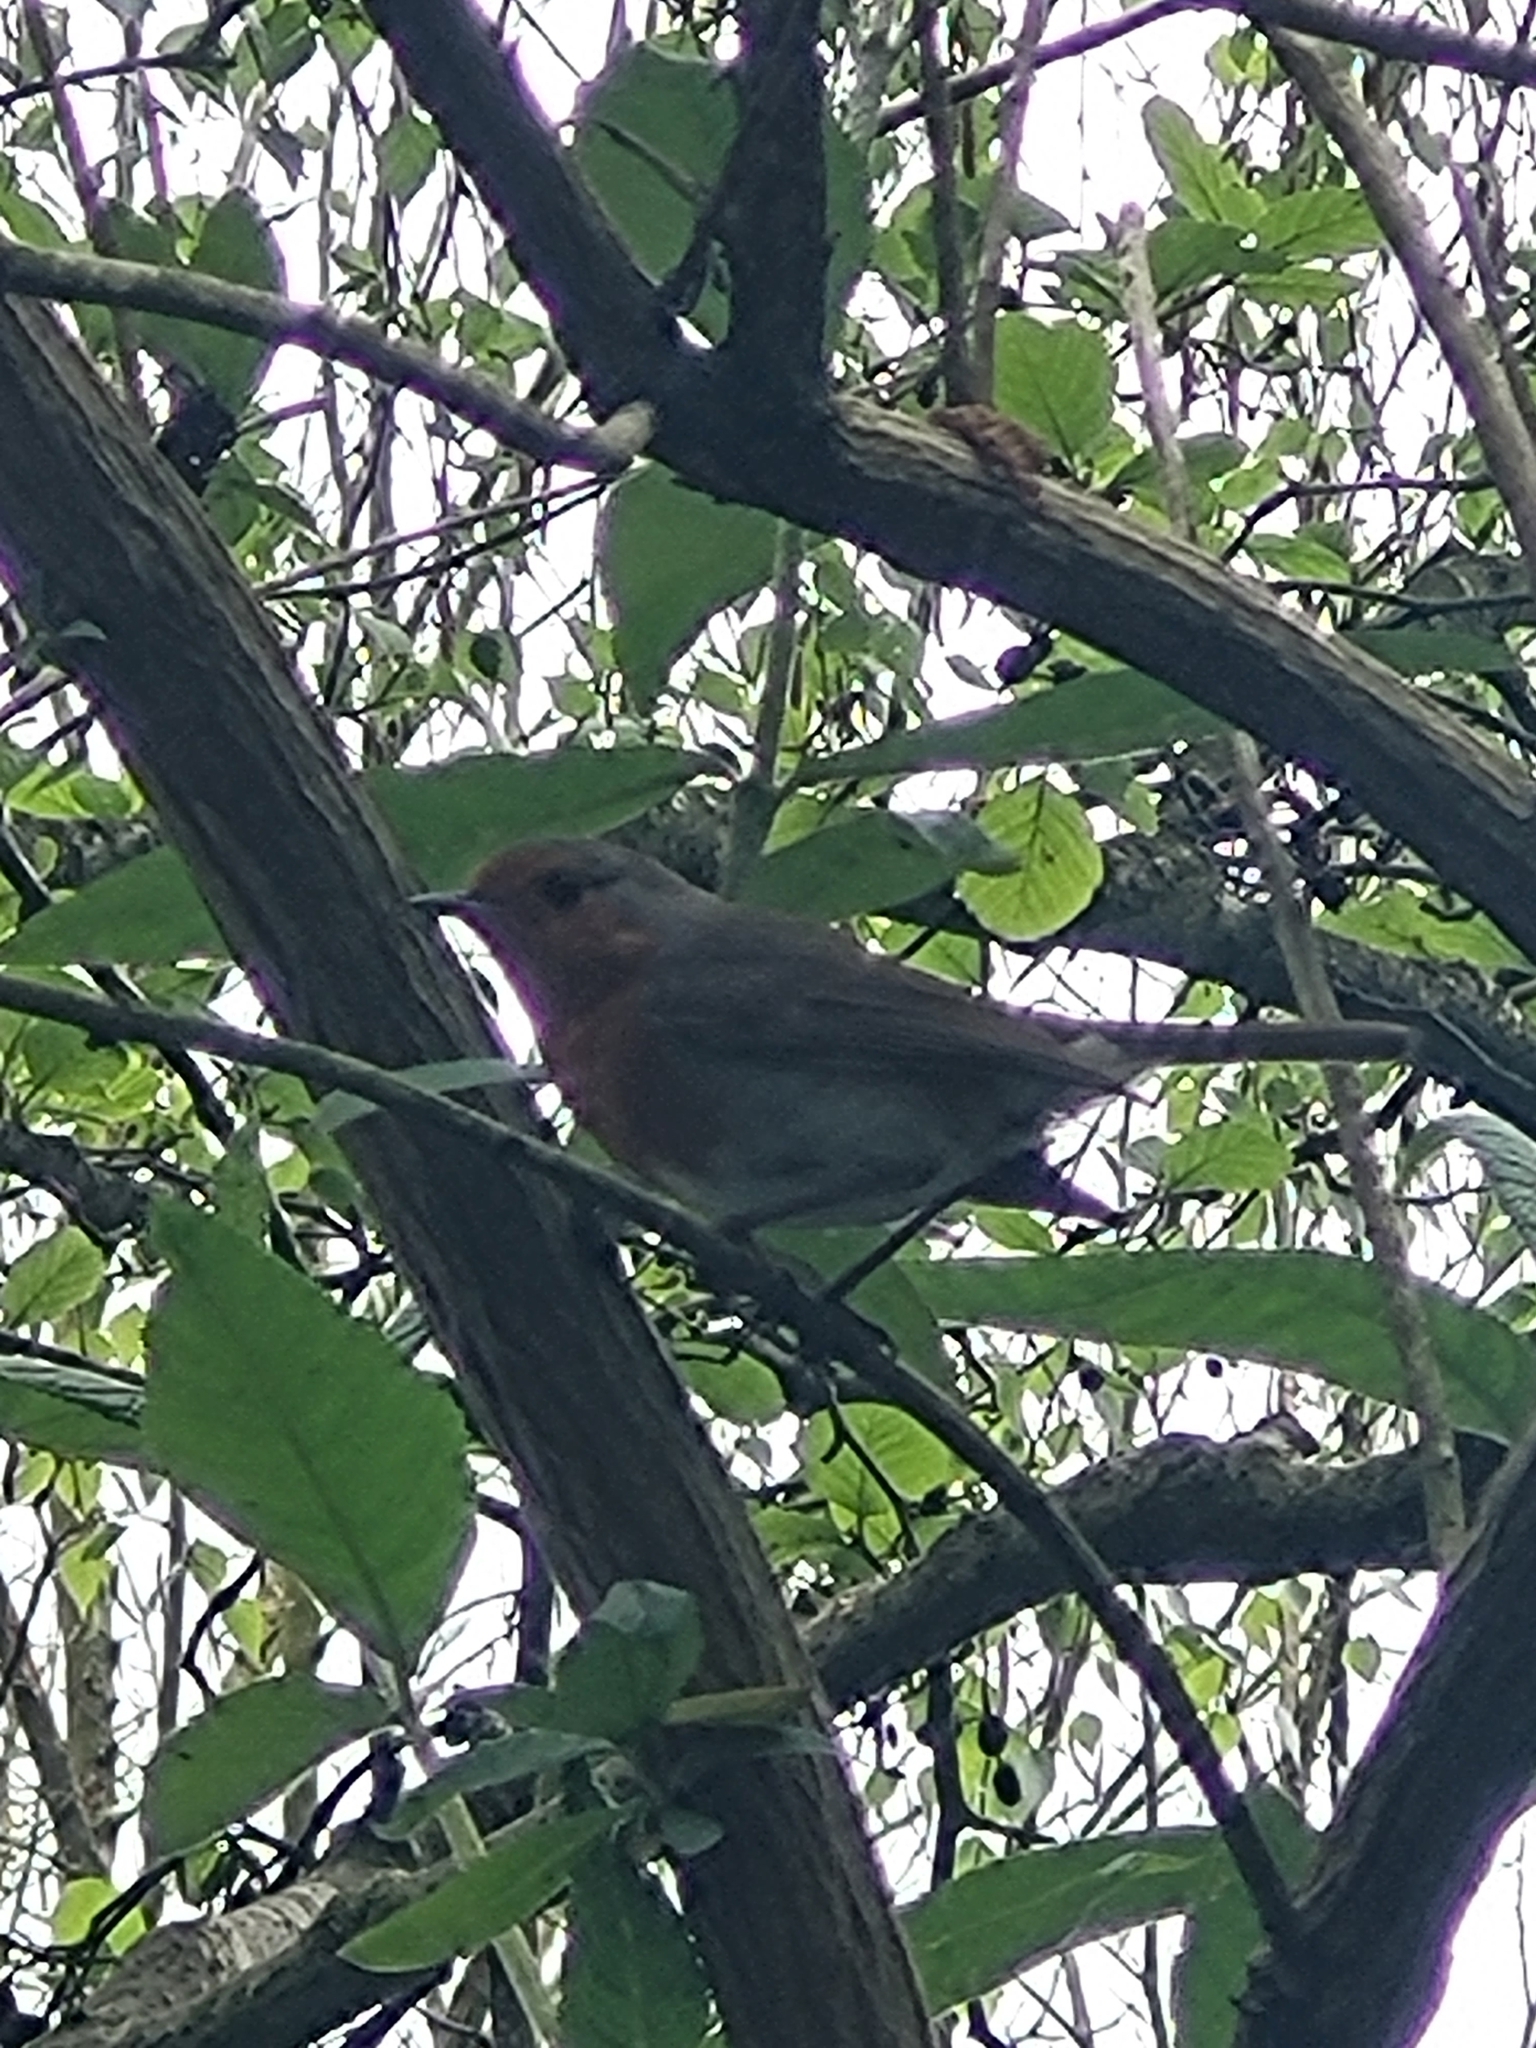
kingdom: Animalia
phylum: Chordata
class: Aves
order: Passeriformes
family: Muscicapidae
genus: Erithacus
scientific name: Erithacus rubecula
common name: European robin
